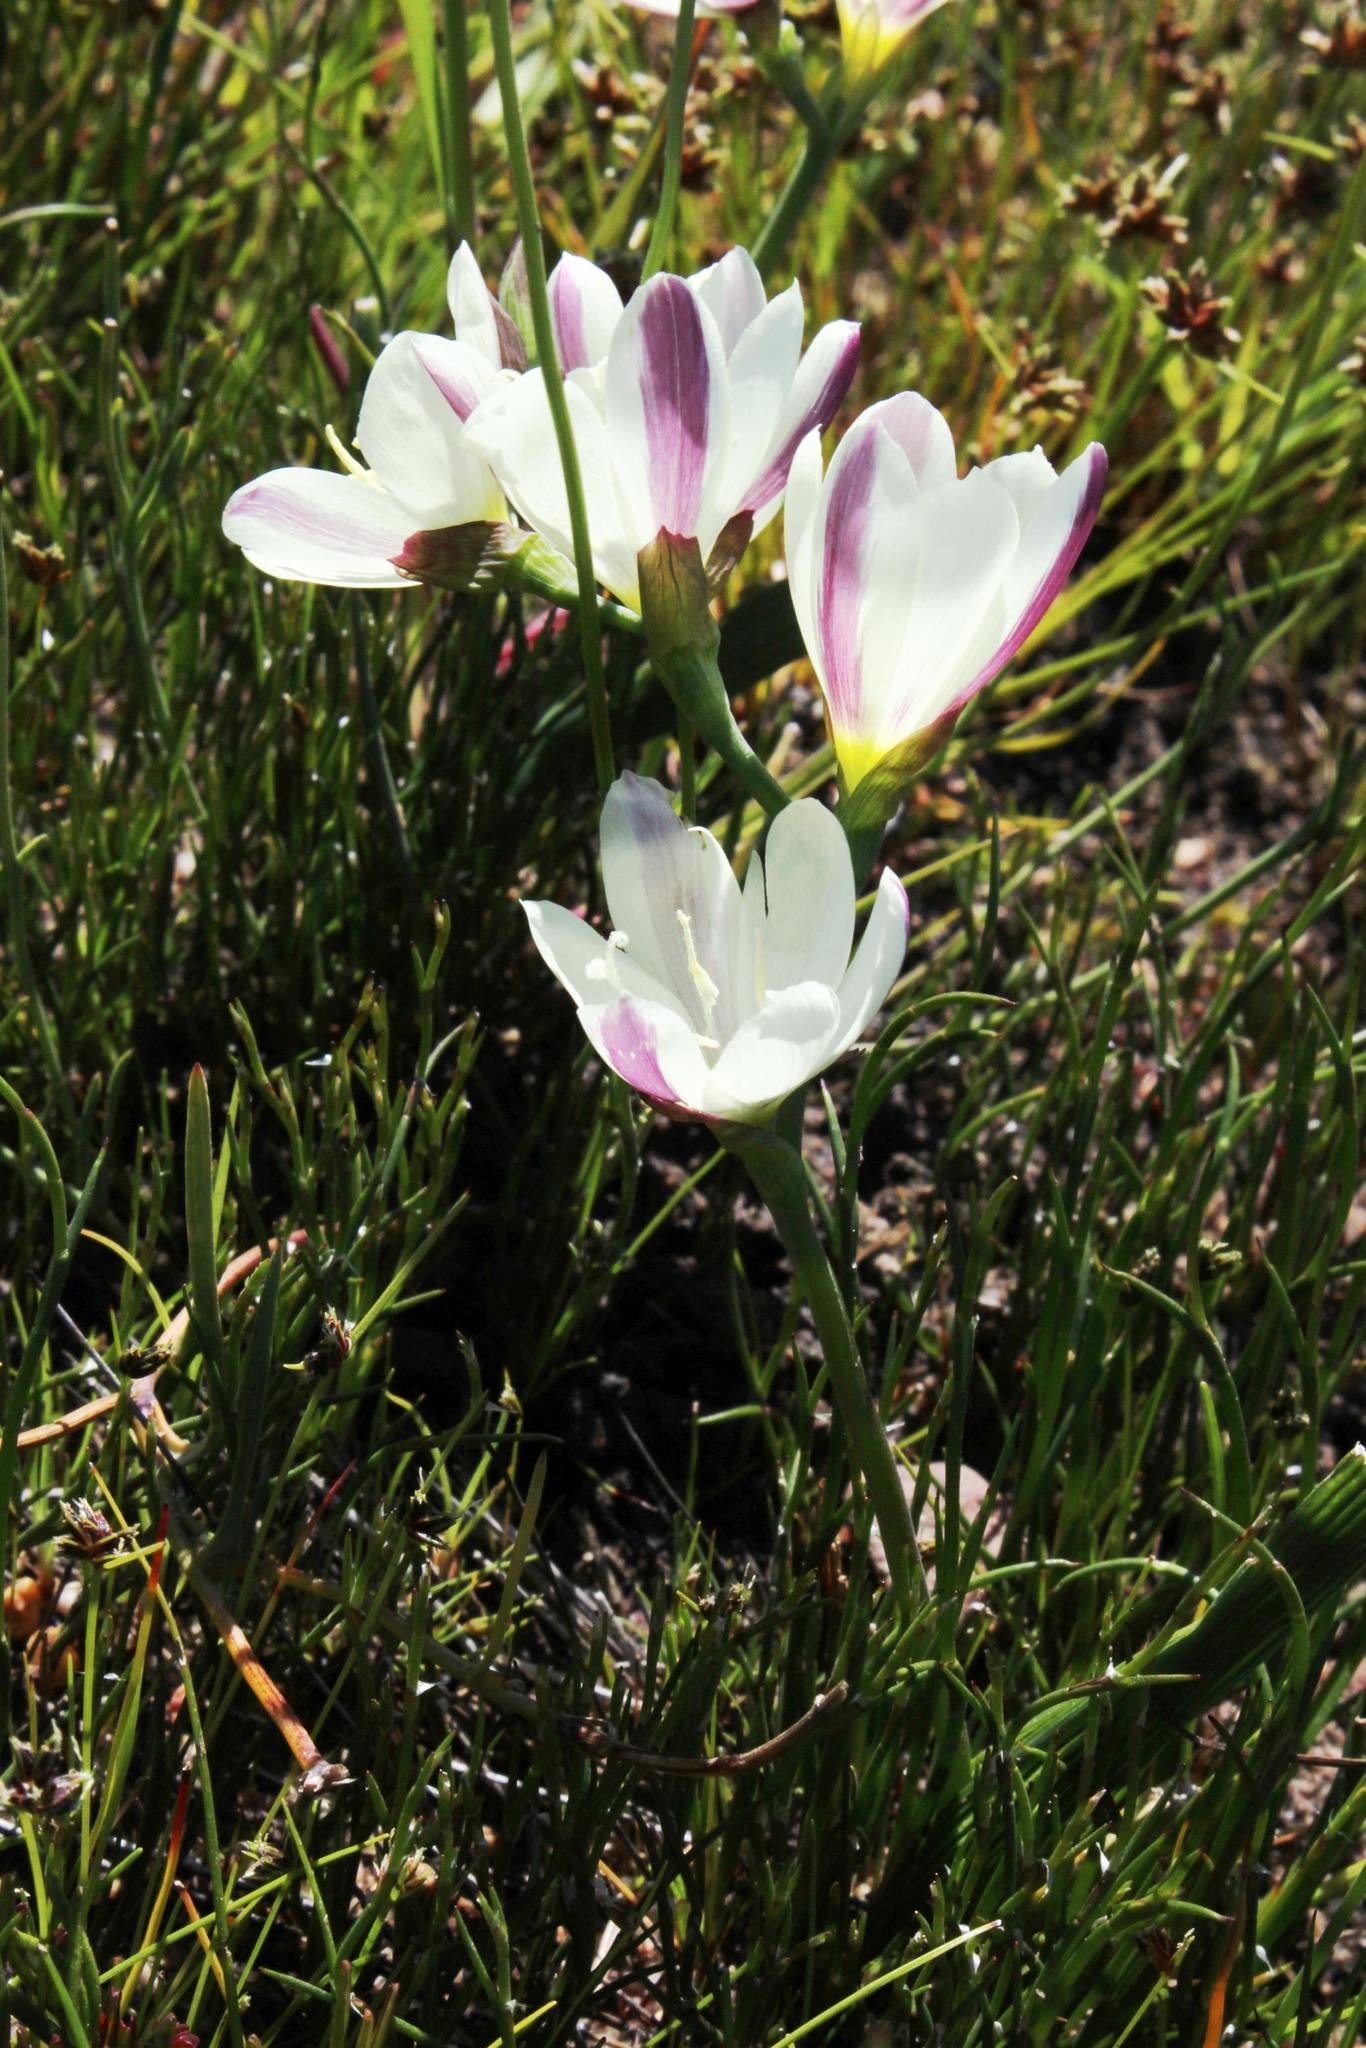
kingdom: Plantae
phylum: Tracheophyta
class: Liliopsida
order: Asparagales
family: Iridaceae
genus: Hesperantha
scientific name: Hesperantha falcata
